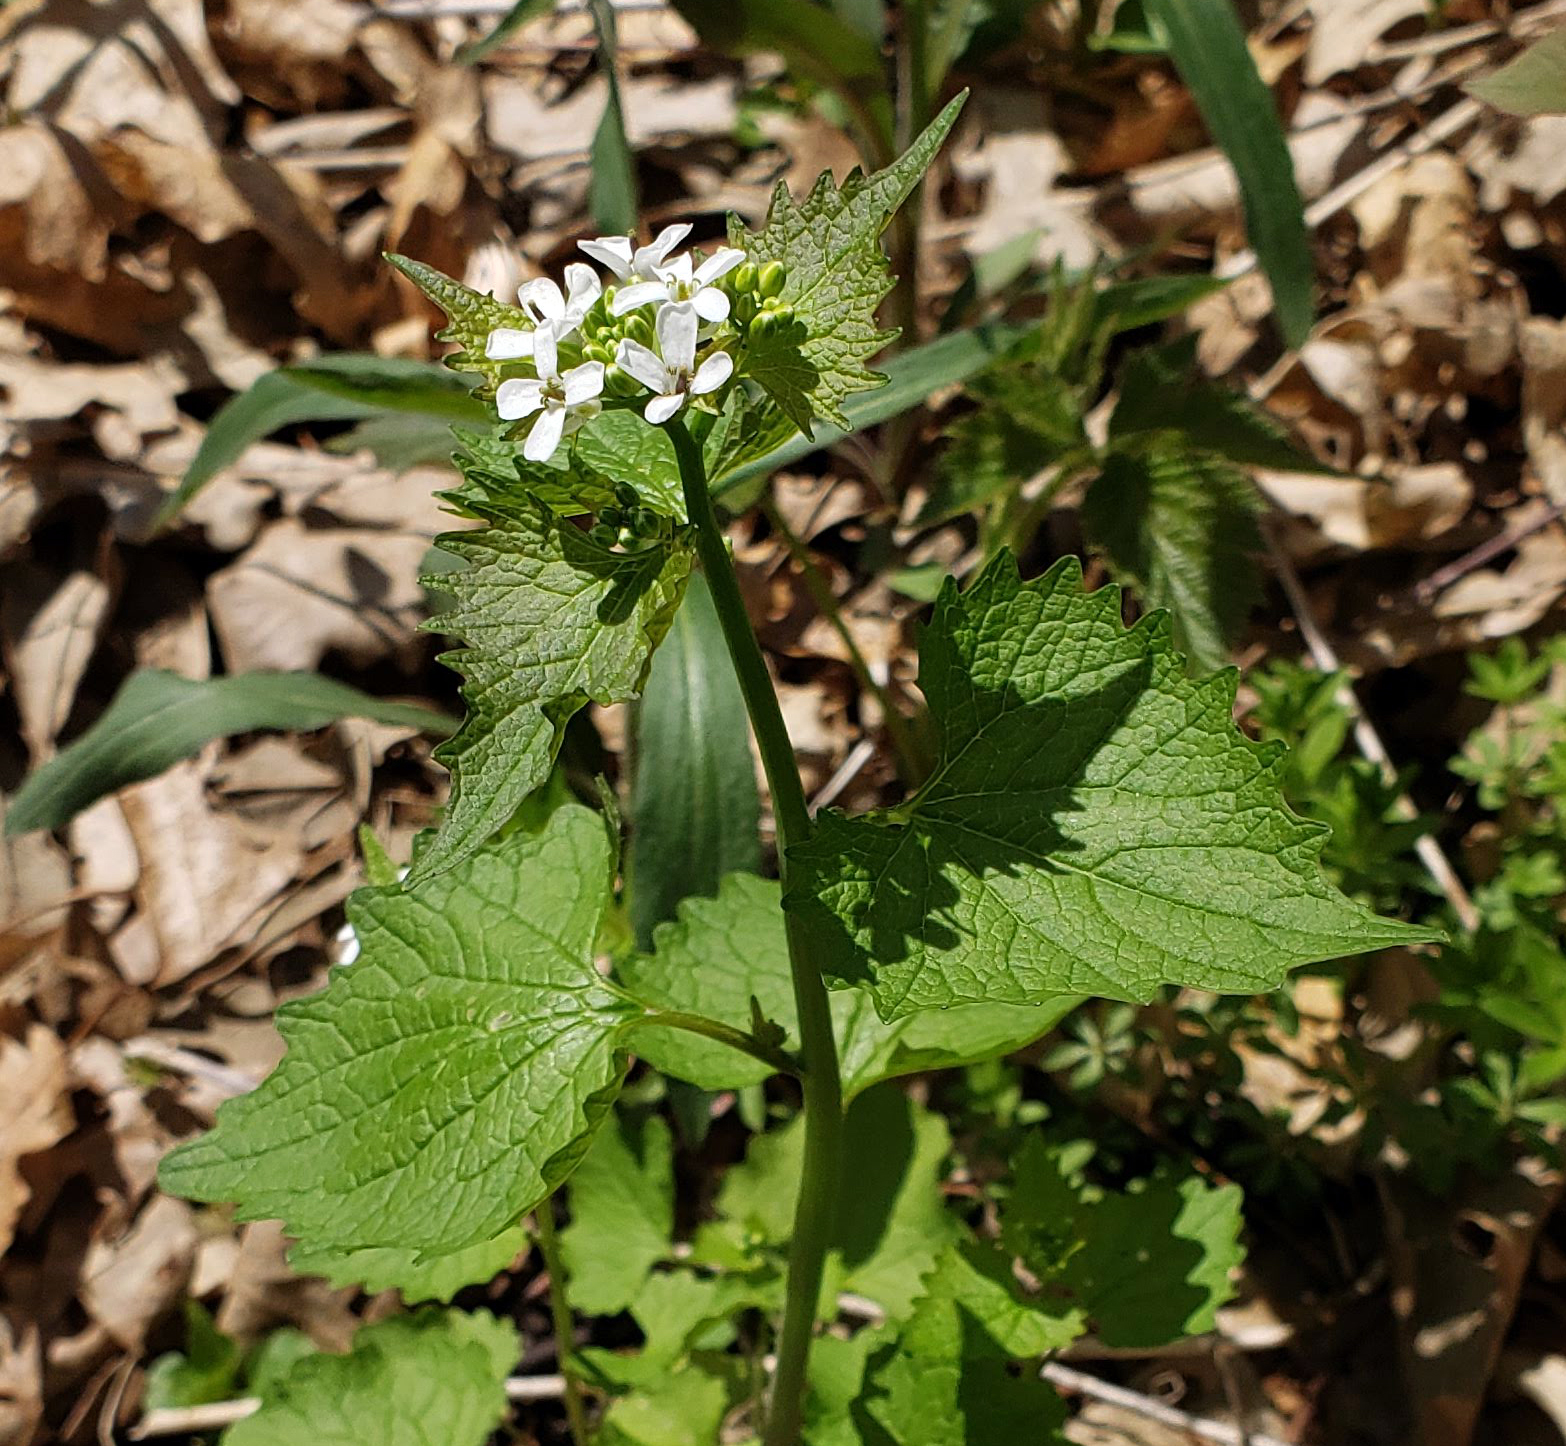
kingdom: Plantae
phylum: Tracheophyta
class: Magnoliopsida
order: Brassicales
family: Brassicaceae
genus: Alliaria
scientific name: Alliaria petiolata
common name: Garlic mustard
